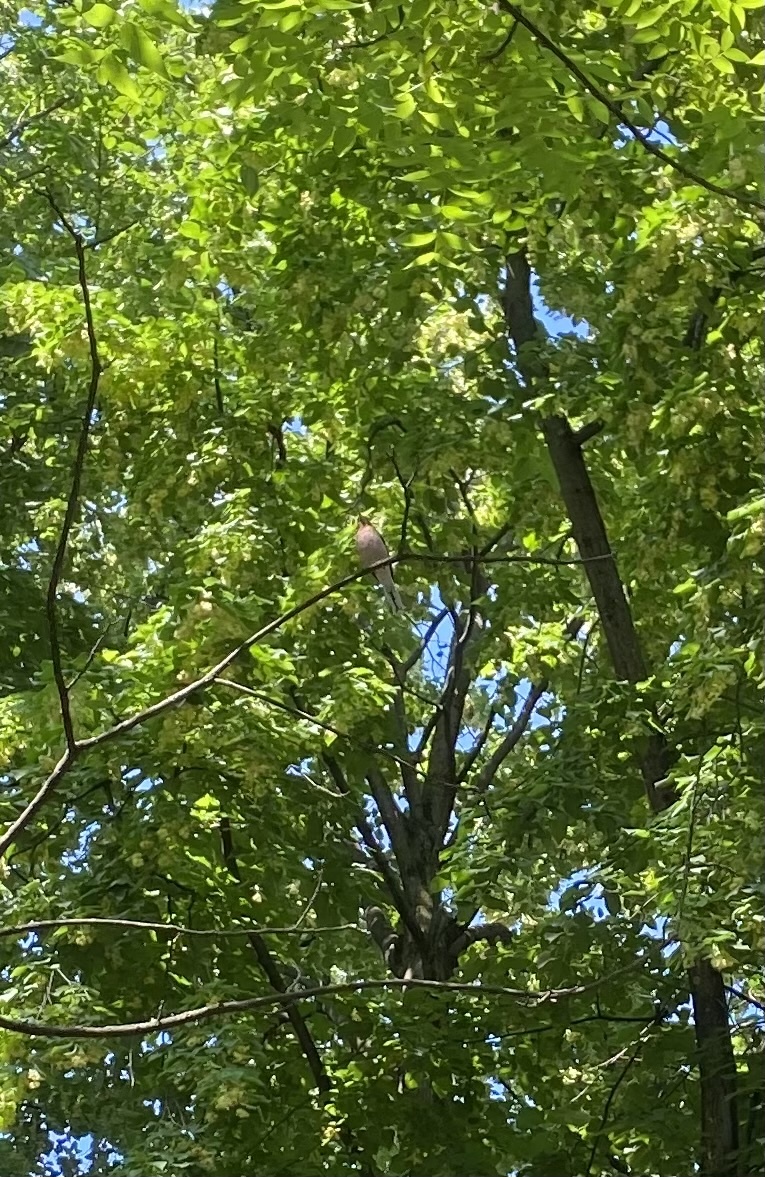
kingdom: Animalia
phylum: Chordata
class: Aves
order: Passeriformes
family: Fringillidae
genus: Fringilla
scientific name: Fringilla coelebs
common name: Common chaffinch
